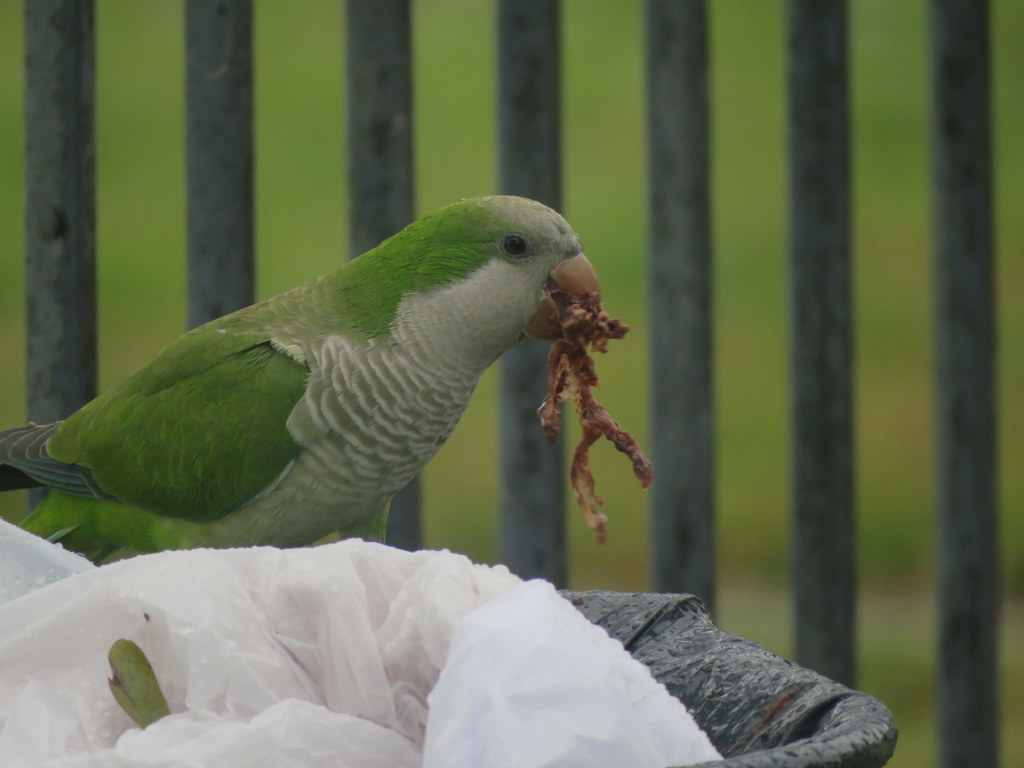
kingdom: Animalia
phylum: Chordata
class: Aves
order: Psittaciformes
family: Psittacidae
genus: Myiopsitta
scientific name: Myiopsitta monachus
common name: Monk parakeet
